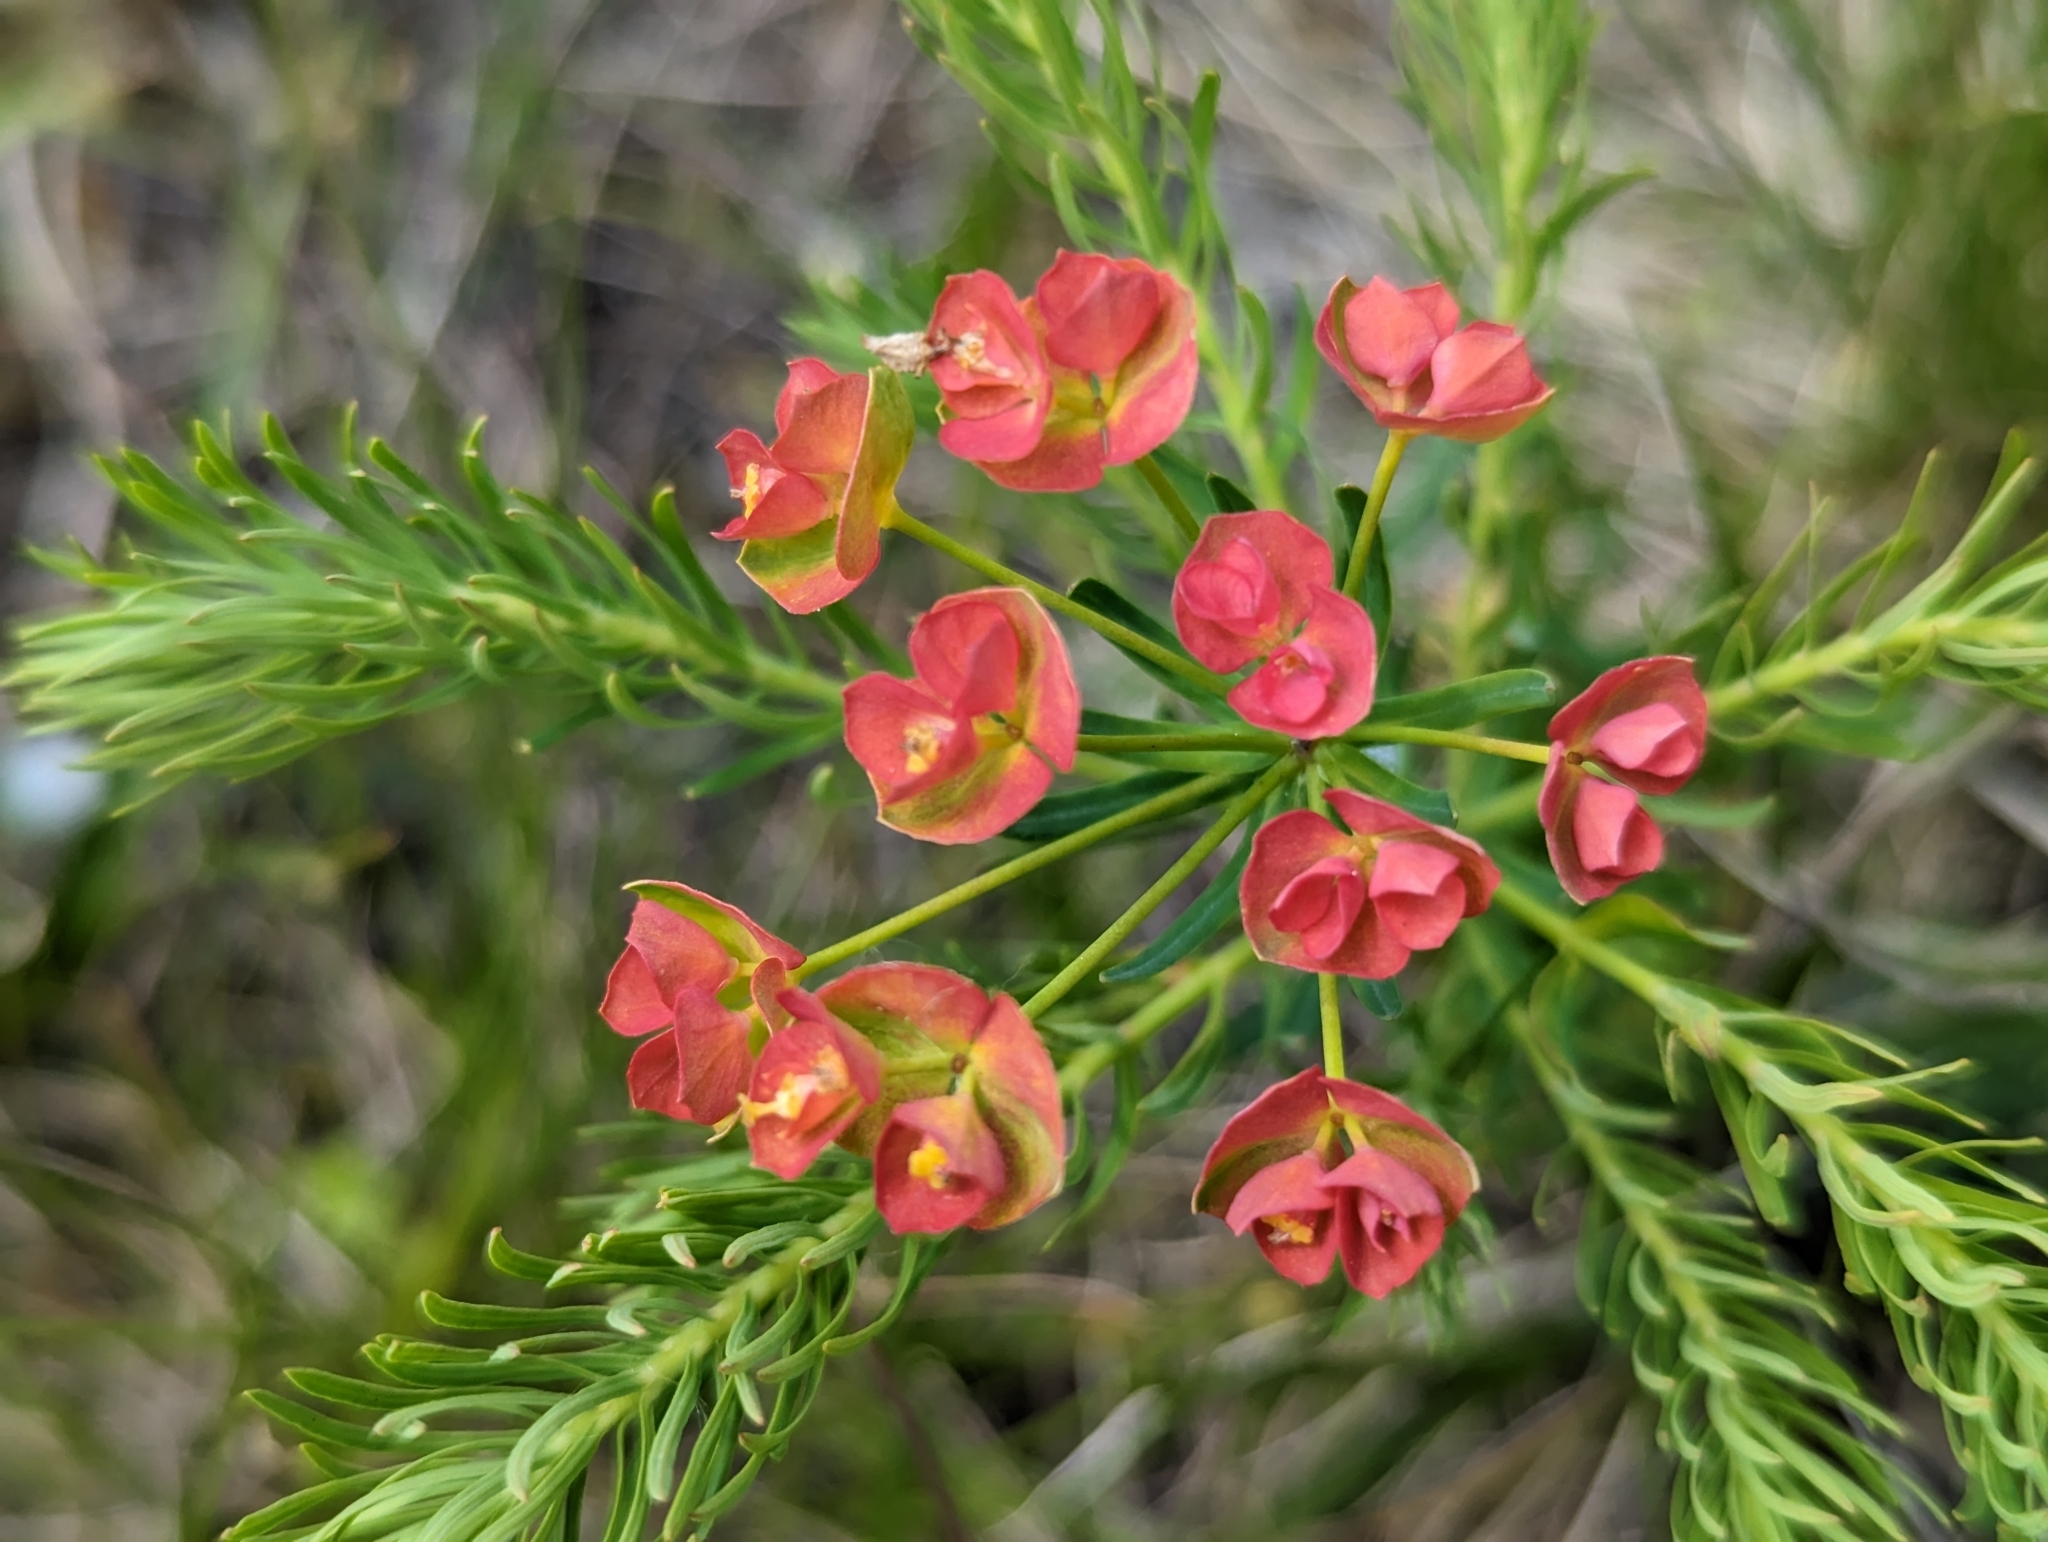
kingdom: Plantae
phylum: Tracheophyta
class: Magnoliopsida
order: Malpighiales
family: Euphorbiaceae
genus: Euphorbia
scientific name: Euphorbia cyparissias
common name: Cypress spurge
